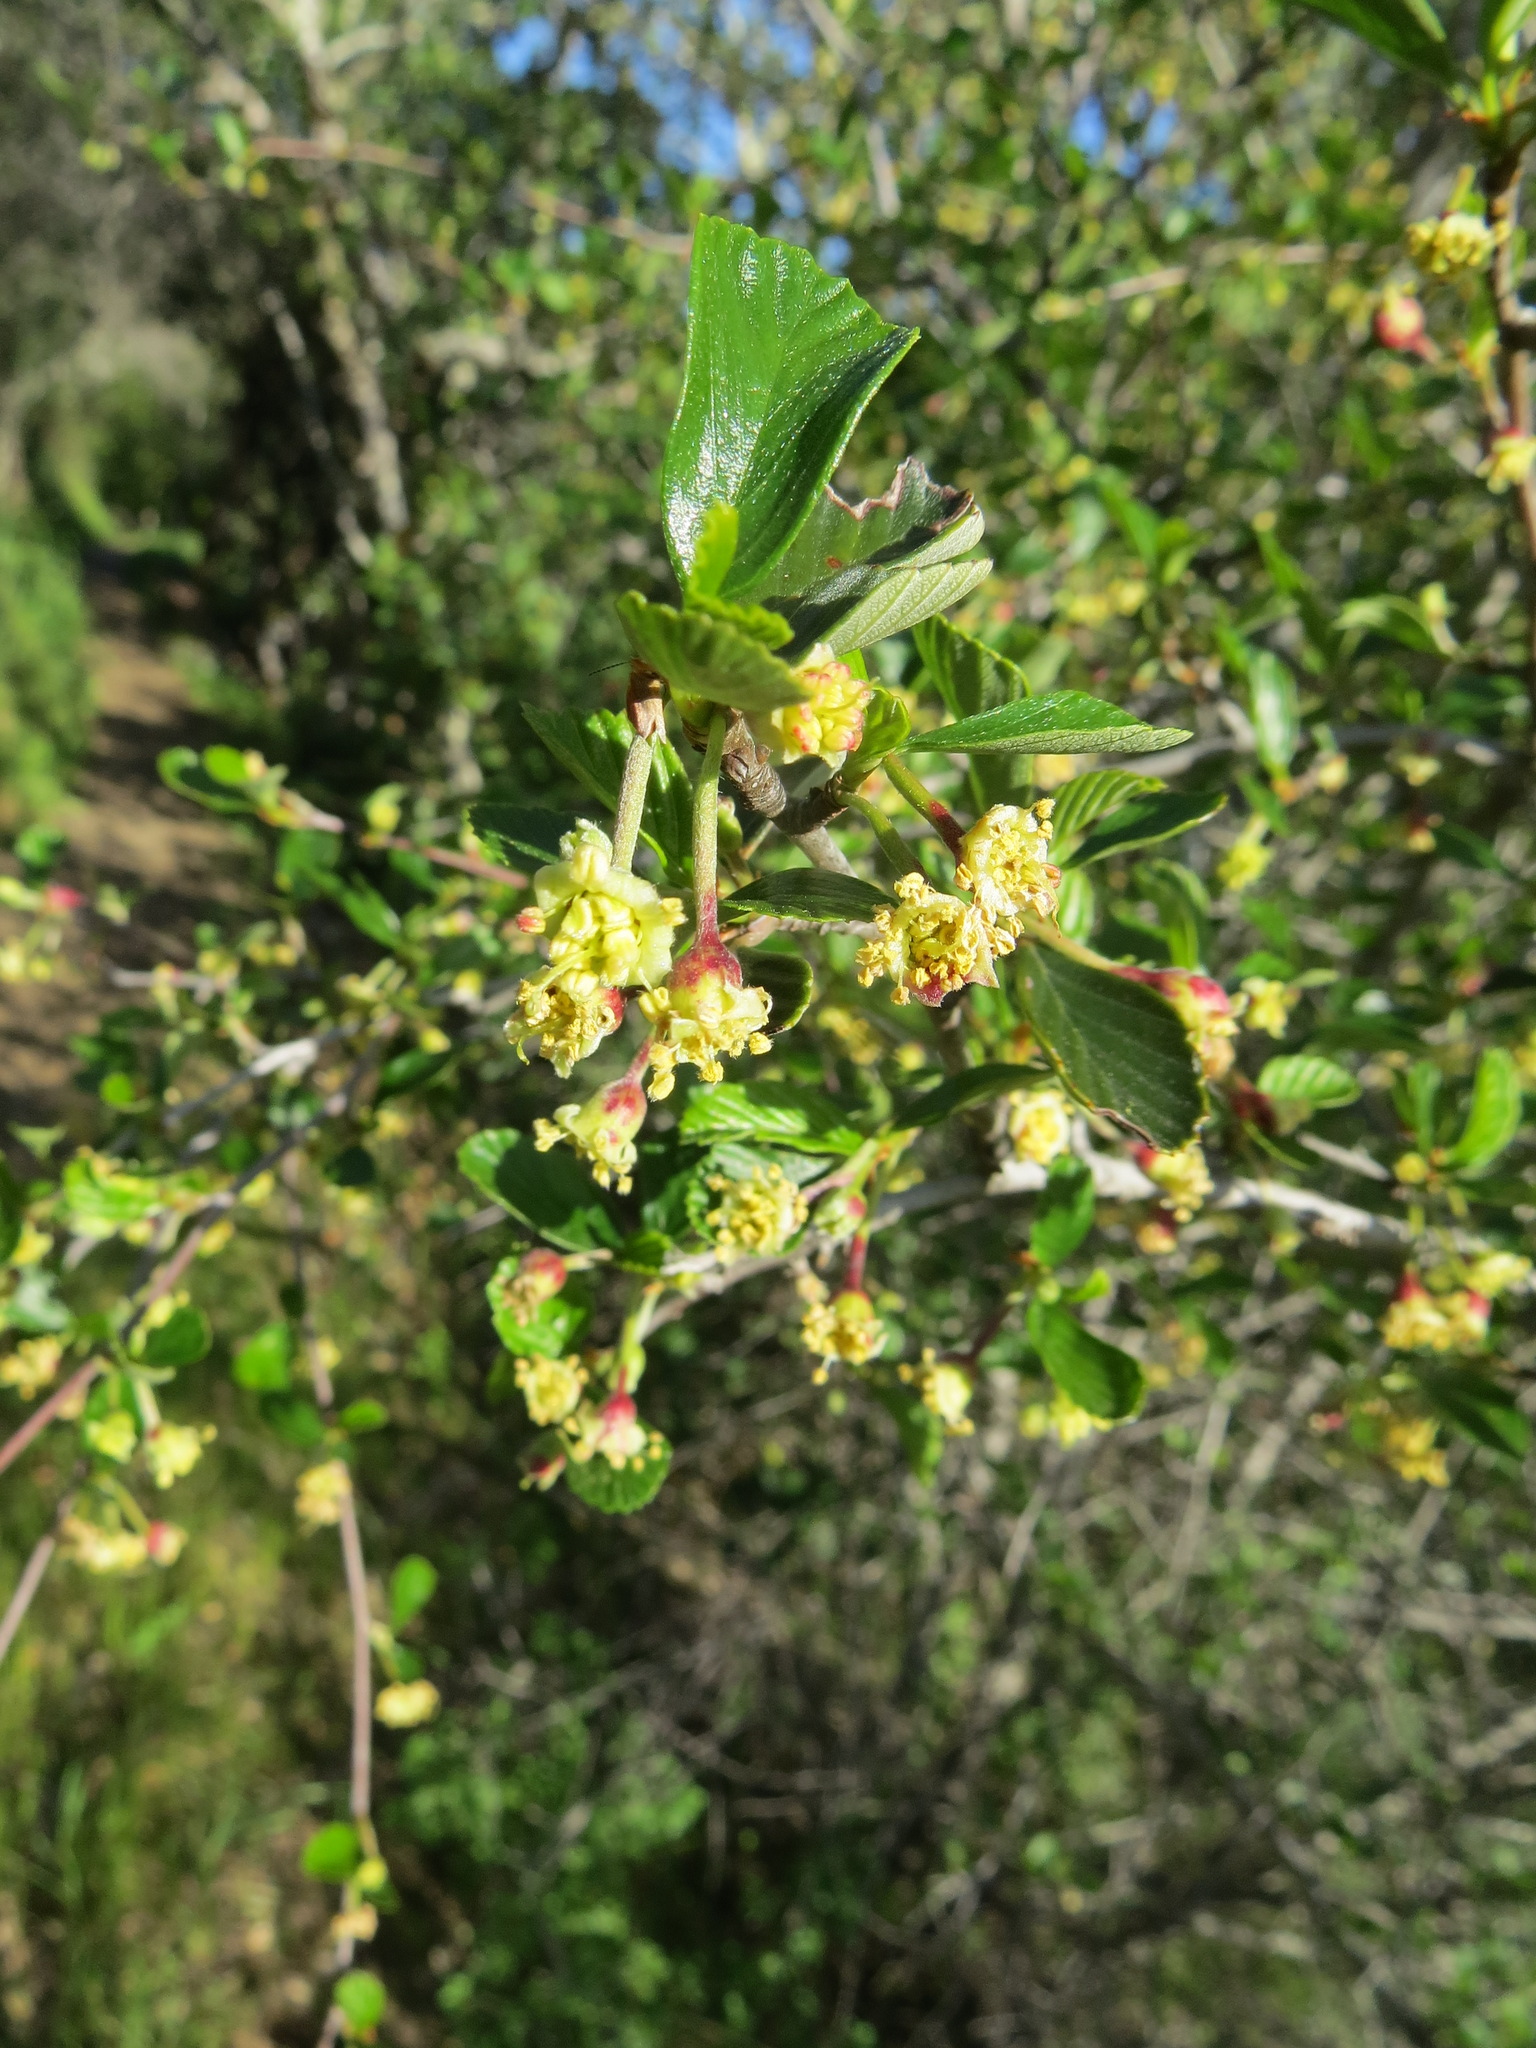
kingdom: Plantae
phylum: Tracheophyta
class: Magnoliopsida
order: Rosales
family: Rosaceae
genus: Cercocarpus
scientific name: Cercocarpus betuloides
